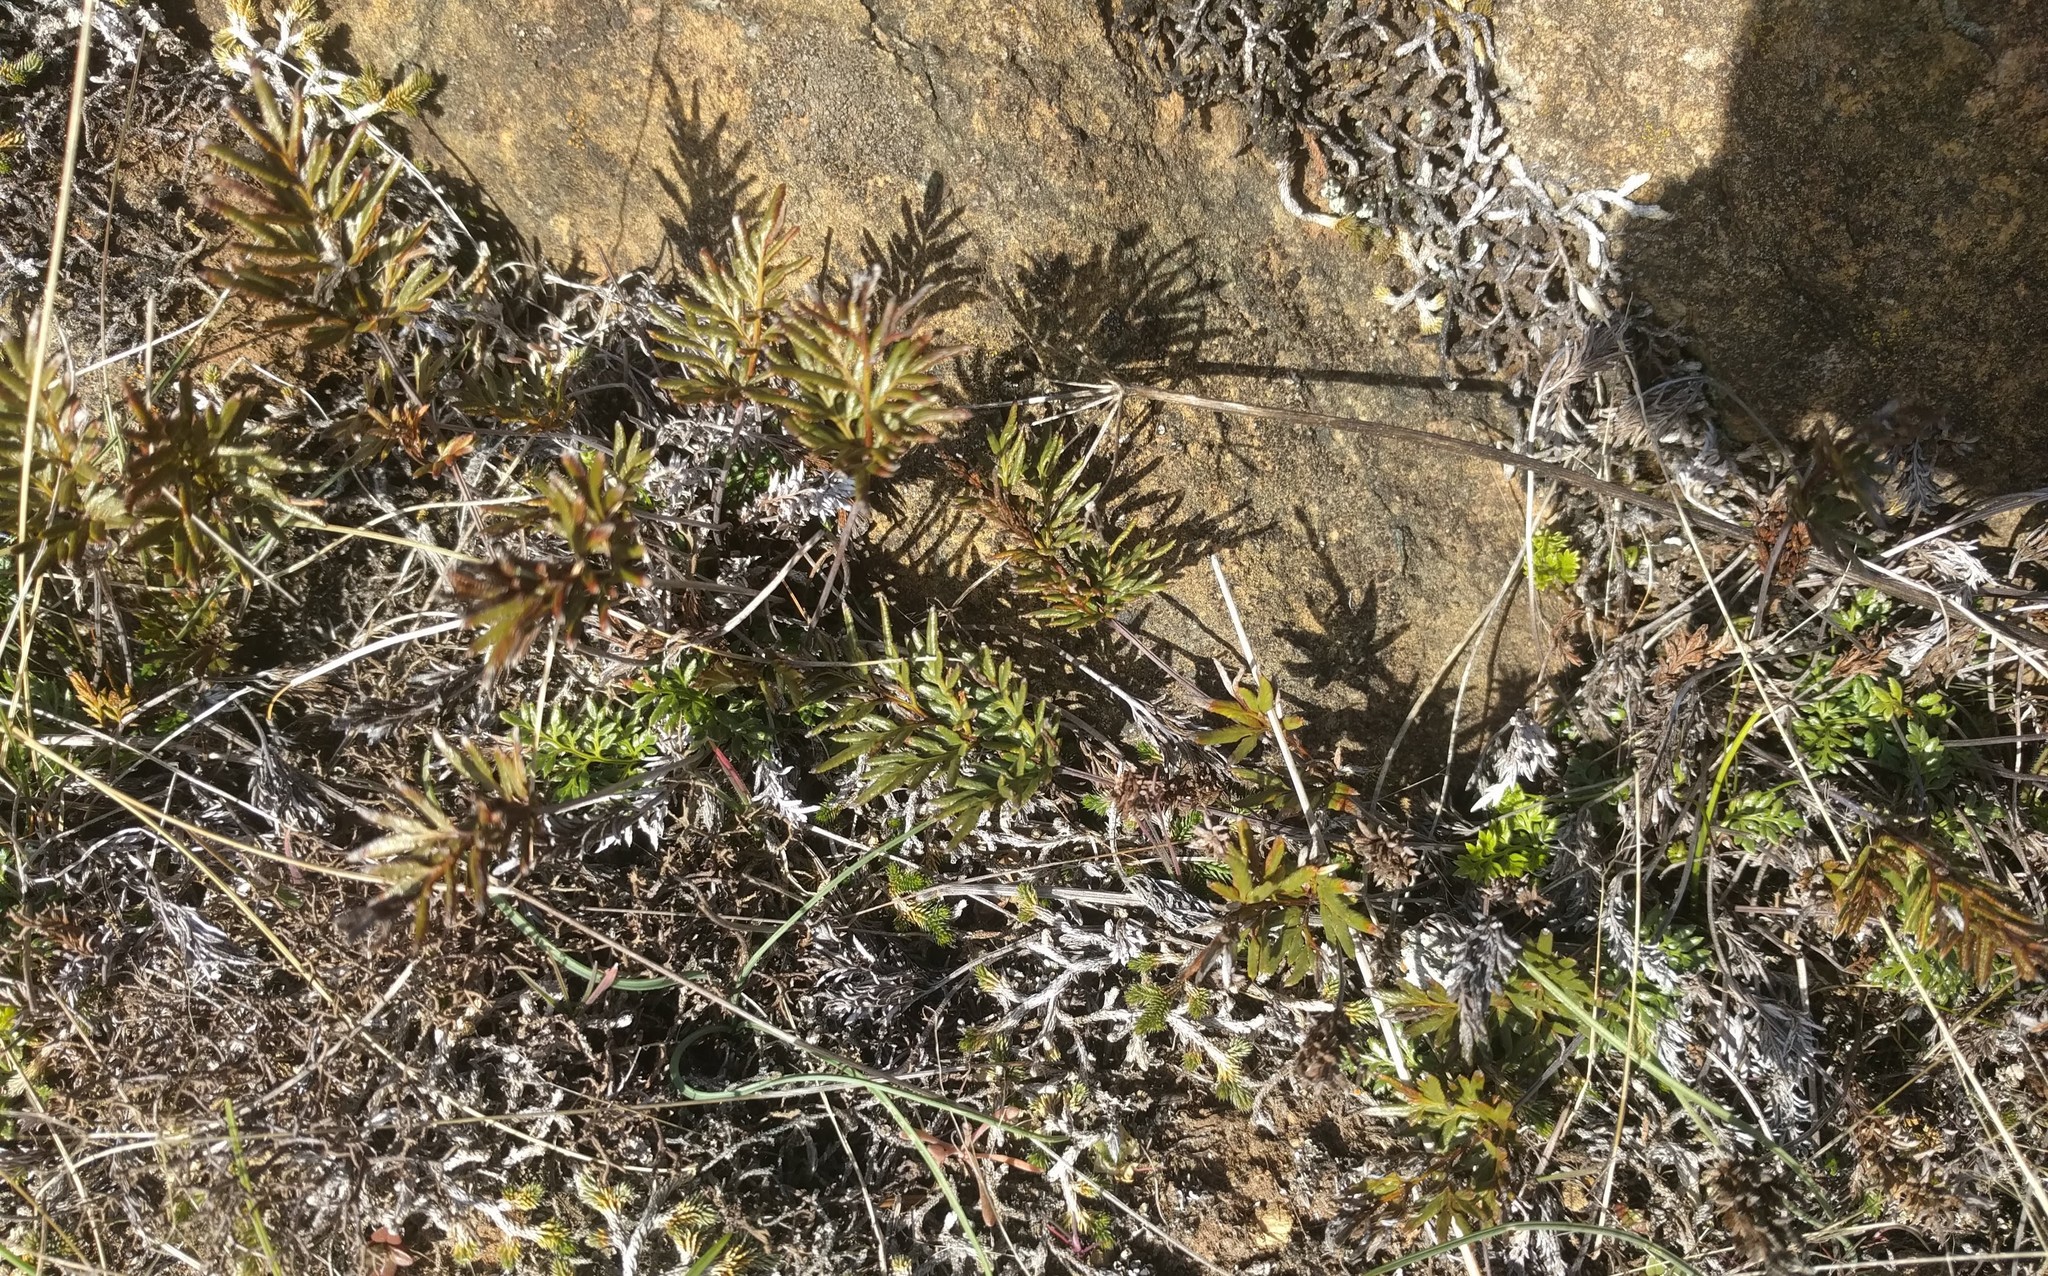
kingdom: Plantae
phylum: Tracheophyta
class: Polypodiopsida
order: Polypodiales
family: Pteridaceae
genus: Aspidotis
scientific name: Aspidotis densa
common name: Indian's dream
